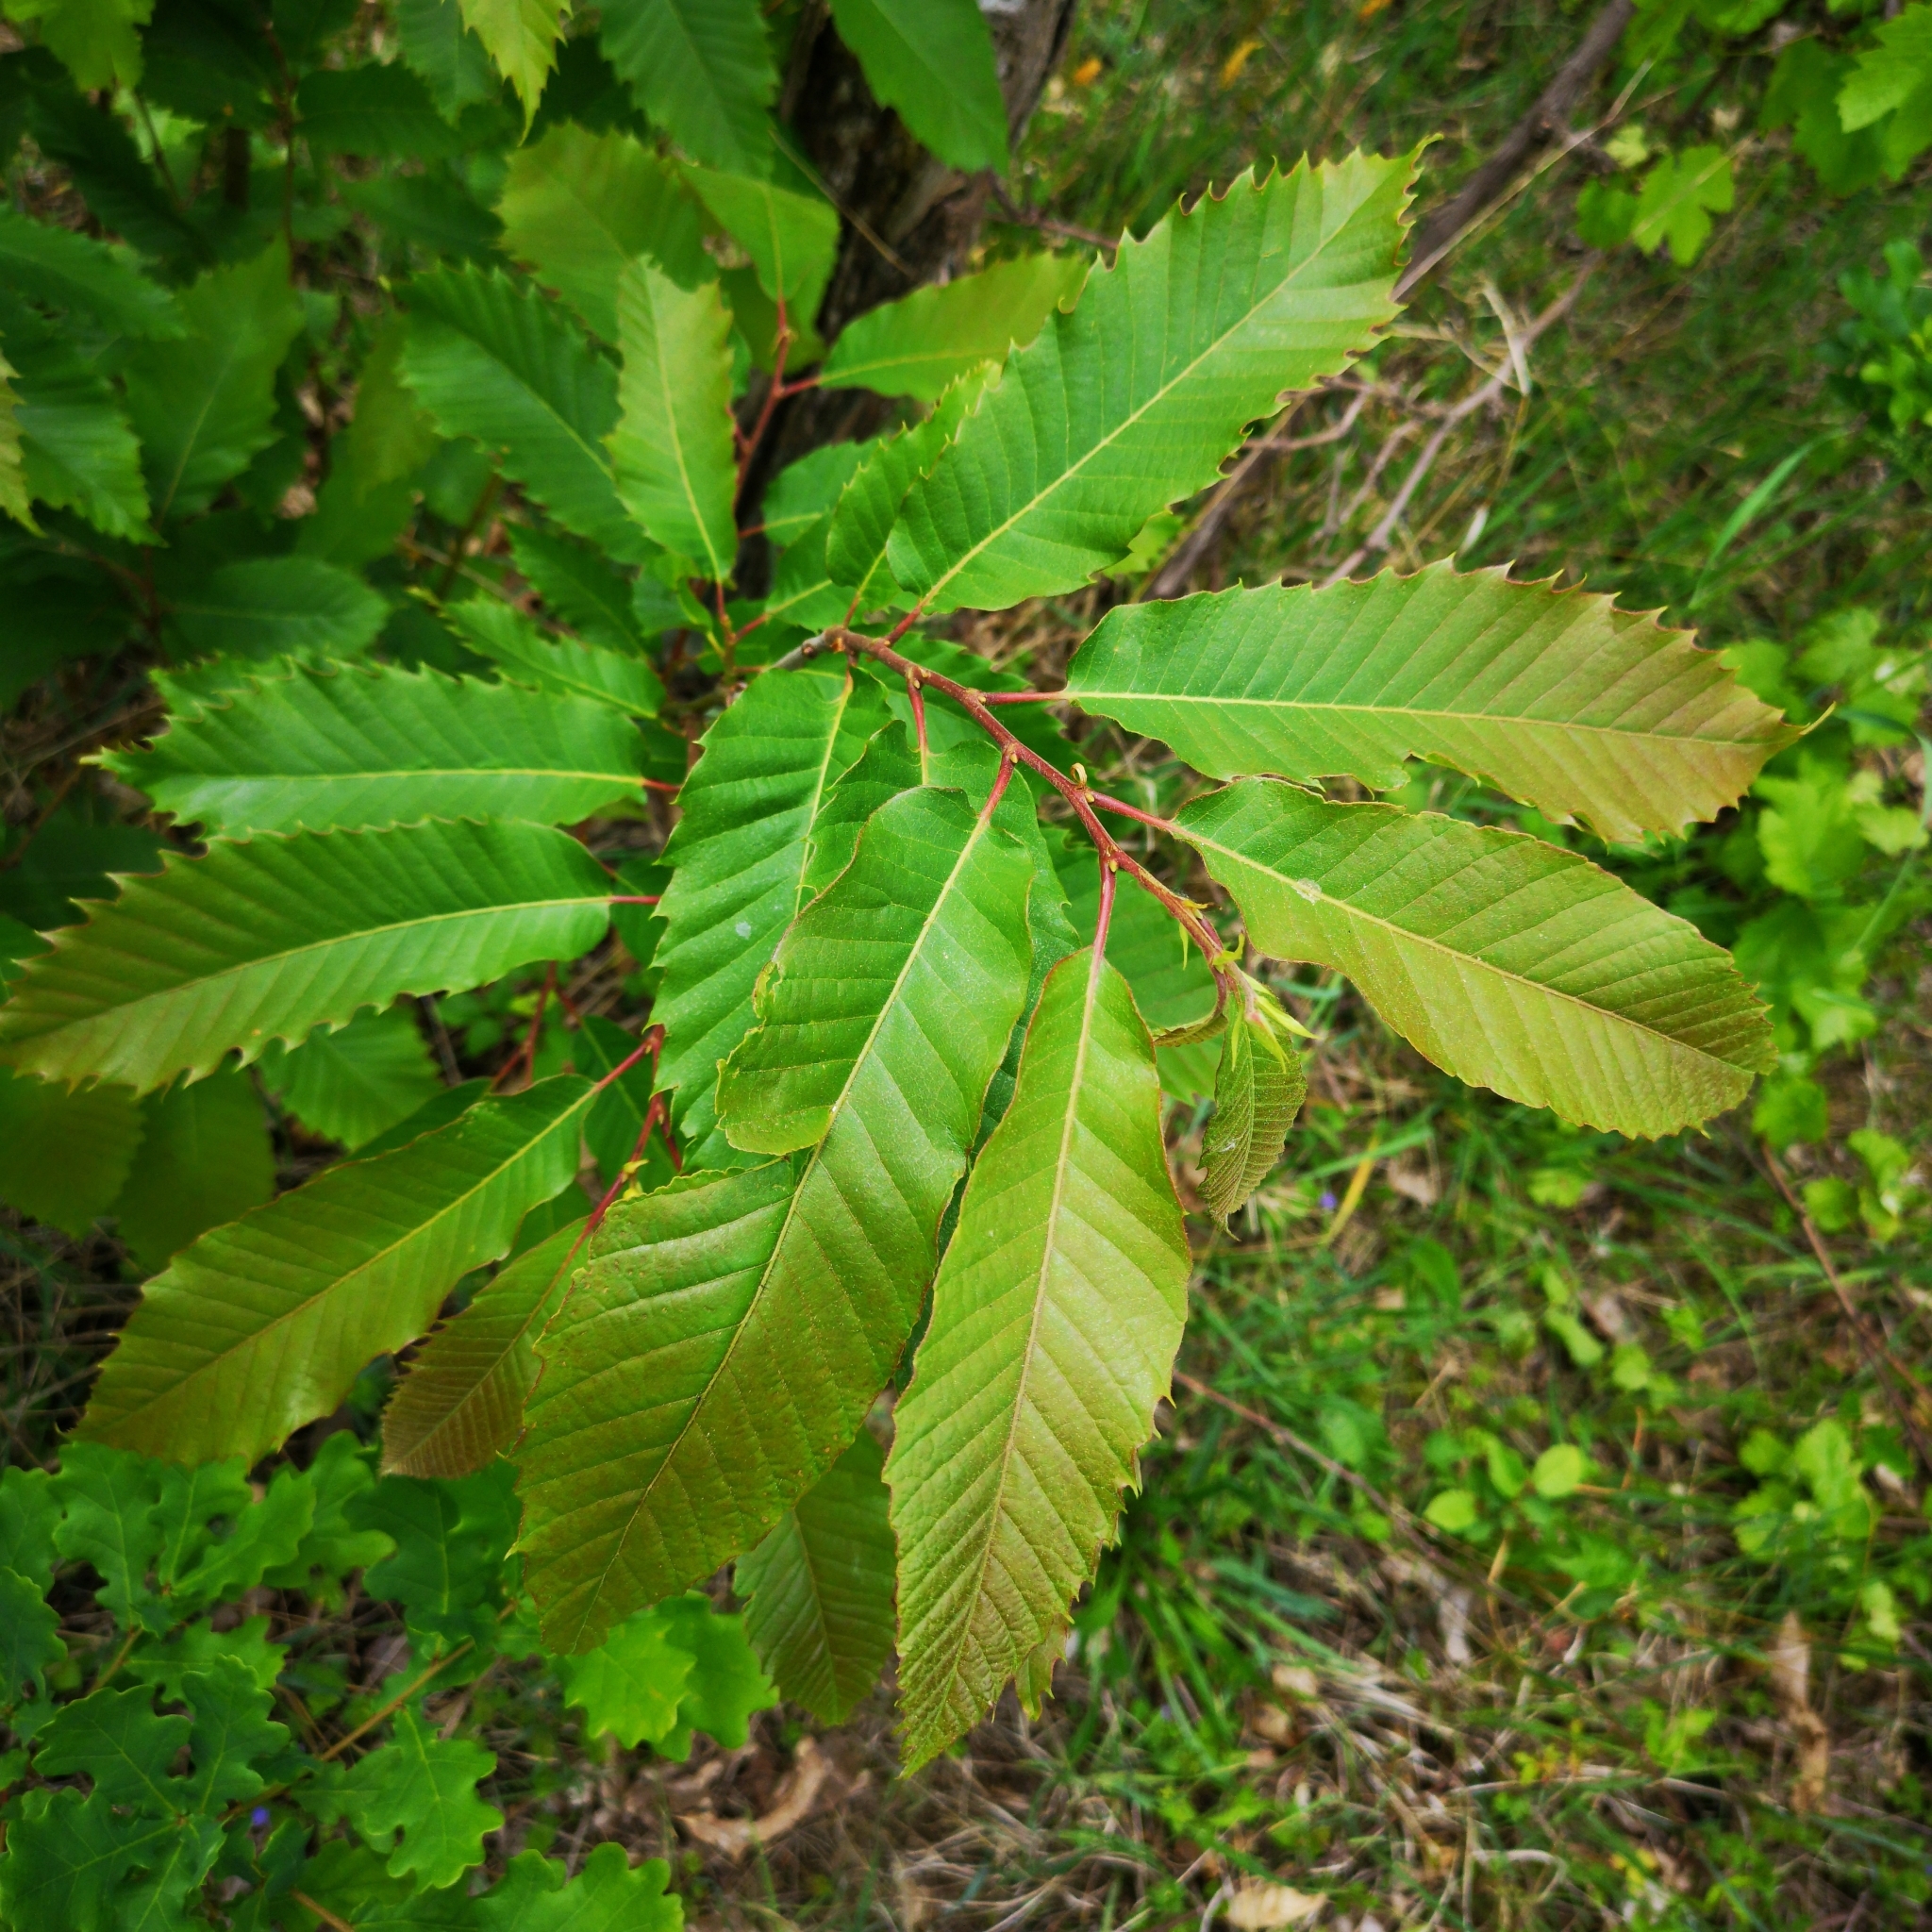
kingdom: Plantae
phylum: Tracheophyta
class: Magnoliopsida
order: Fagales
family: Fagaceae
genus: Castanea
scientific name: Castanea sativa
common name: Sweet chestnut
